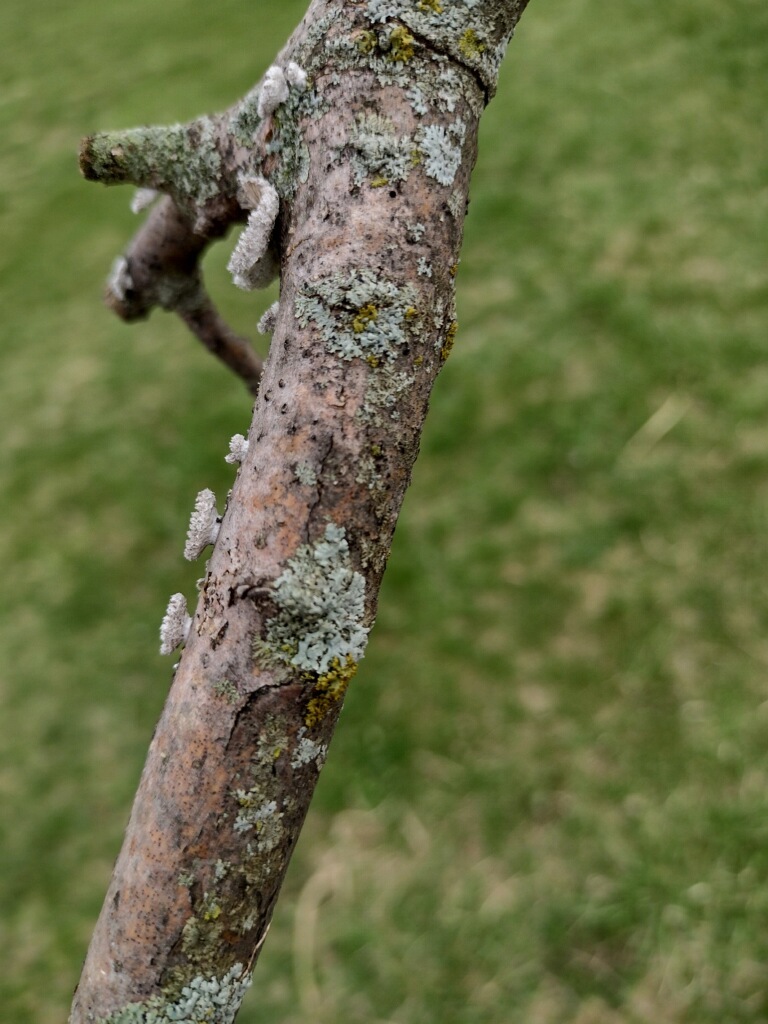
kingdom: Fungi
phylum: Basidiomycota
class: Agaricomycetes
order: Agaricales
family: Schizophyllaceae
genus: Schizophyllum
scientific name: Schizophyllum commune
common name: Common porecrust
